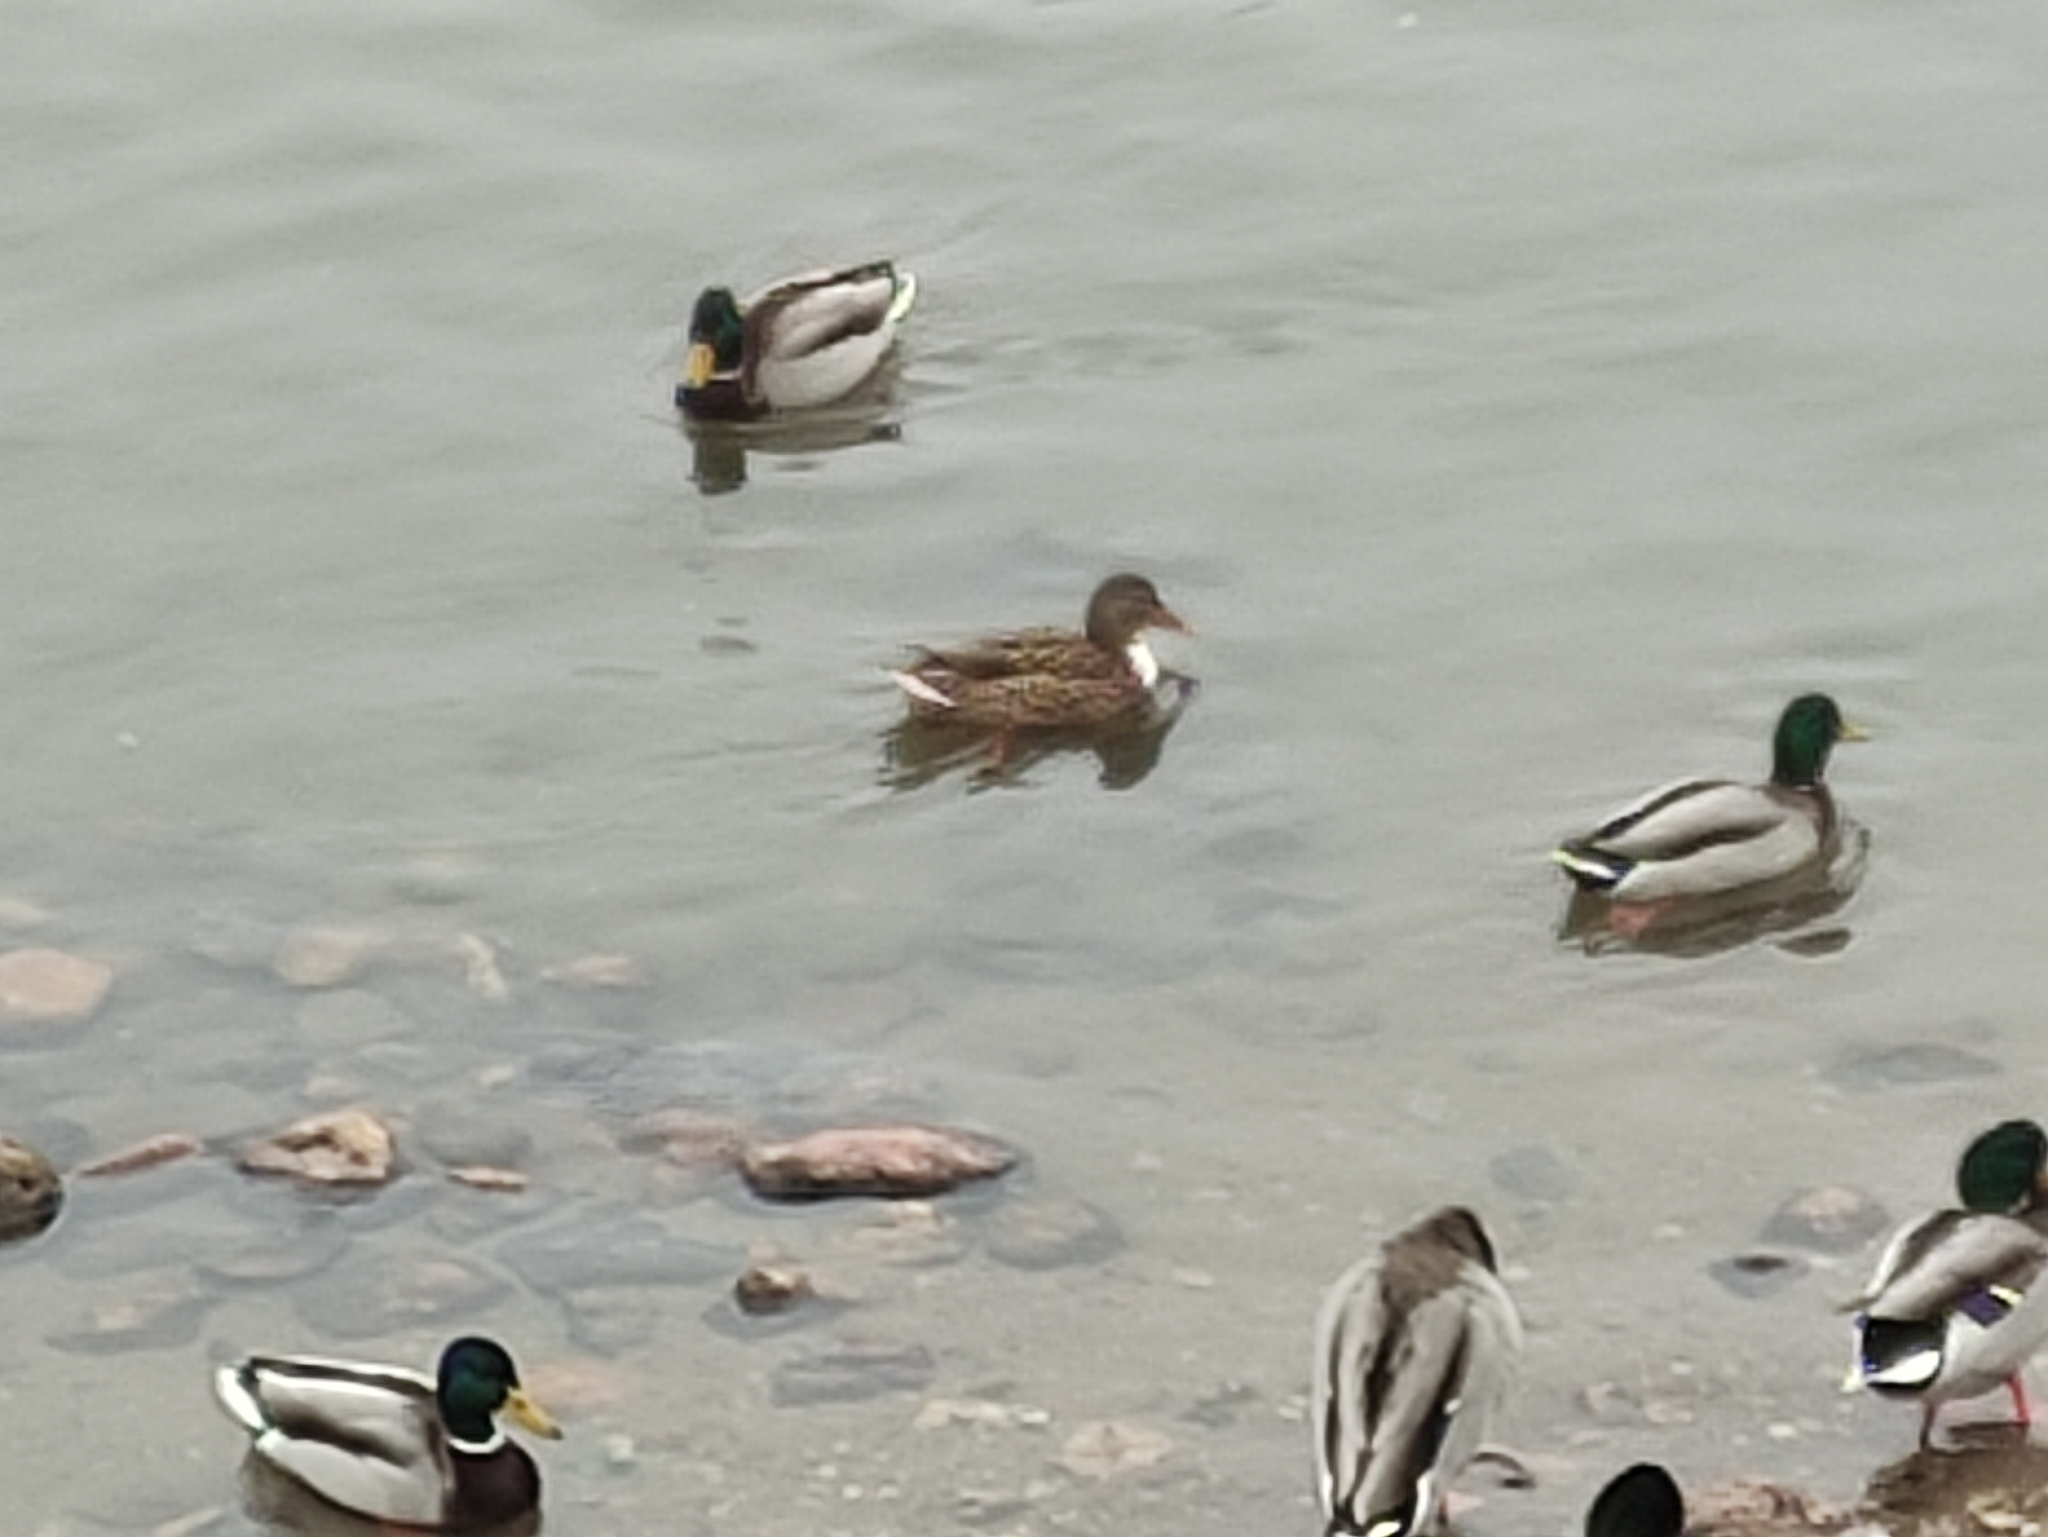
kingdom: Animalia
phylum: Chordata
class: Aves
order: Anseriformes
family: Anatidae
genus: Anas
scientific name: Anas platyrhynchos
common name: Mallard
